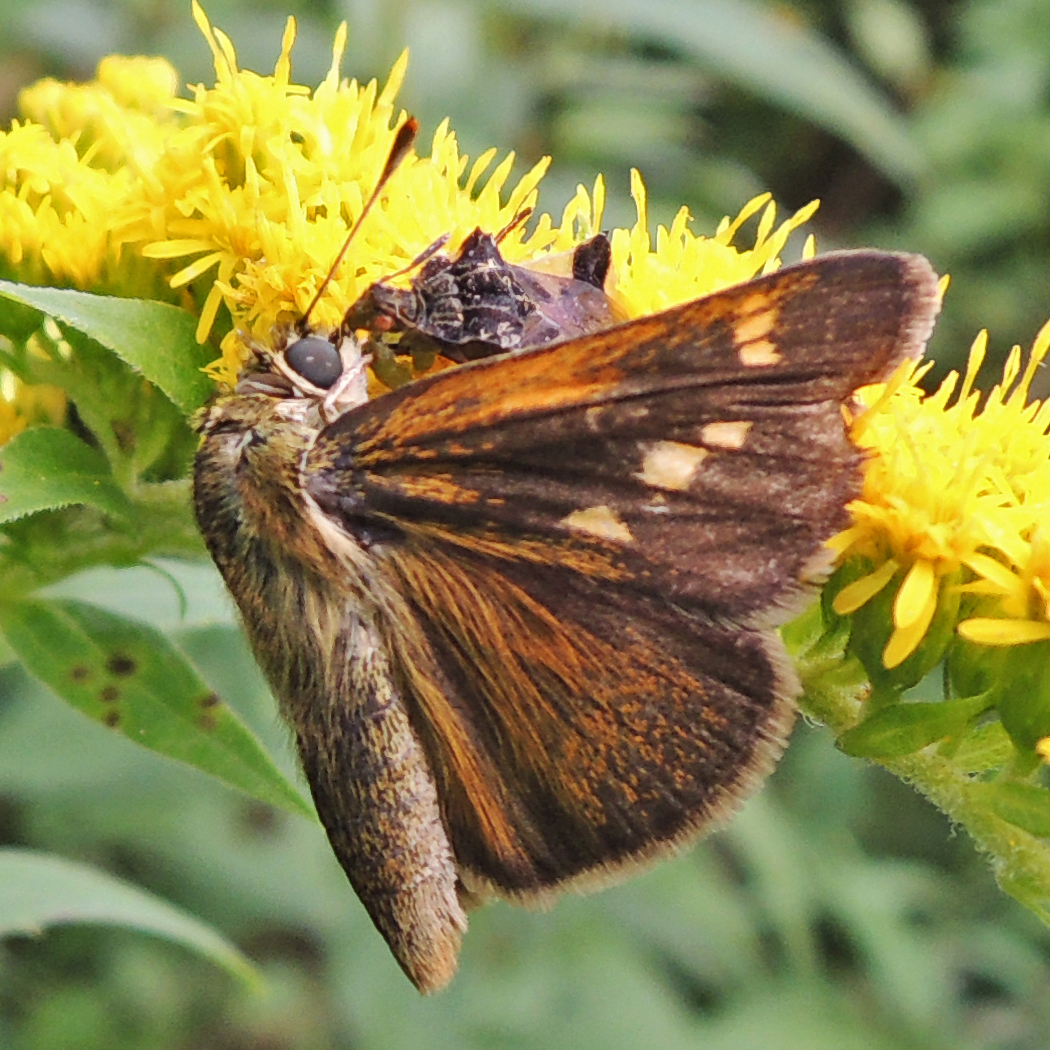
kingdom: Animalia
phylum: Arthropoda
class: Insecta
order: Lepidoptera
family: Hesperiidae
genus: Polites
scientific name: Polites themistocles
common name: Tawny-edged skipper
